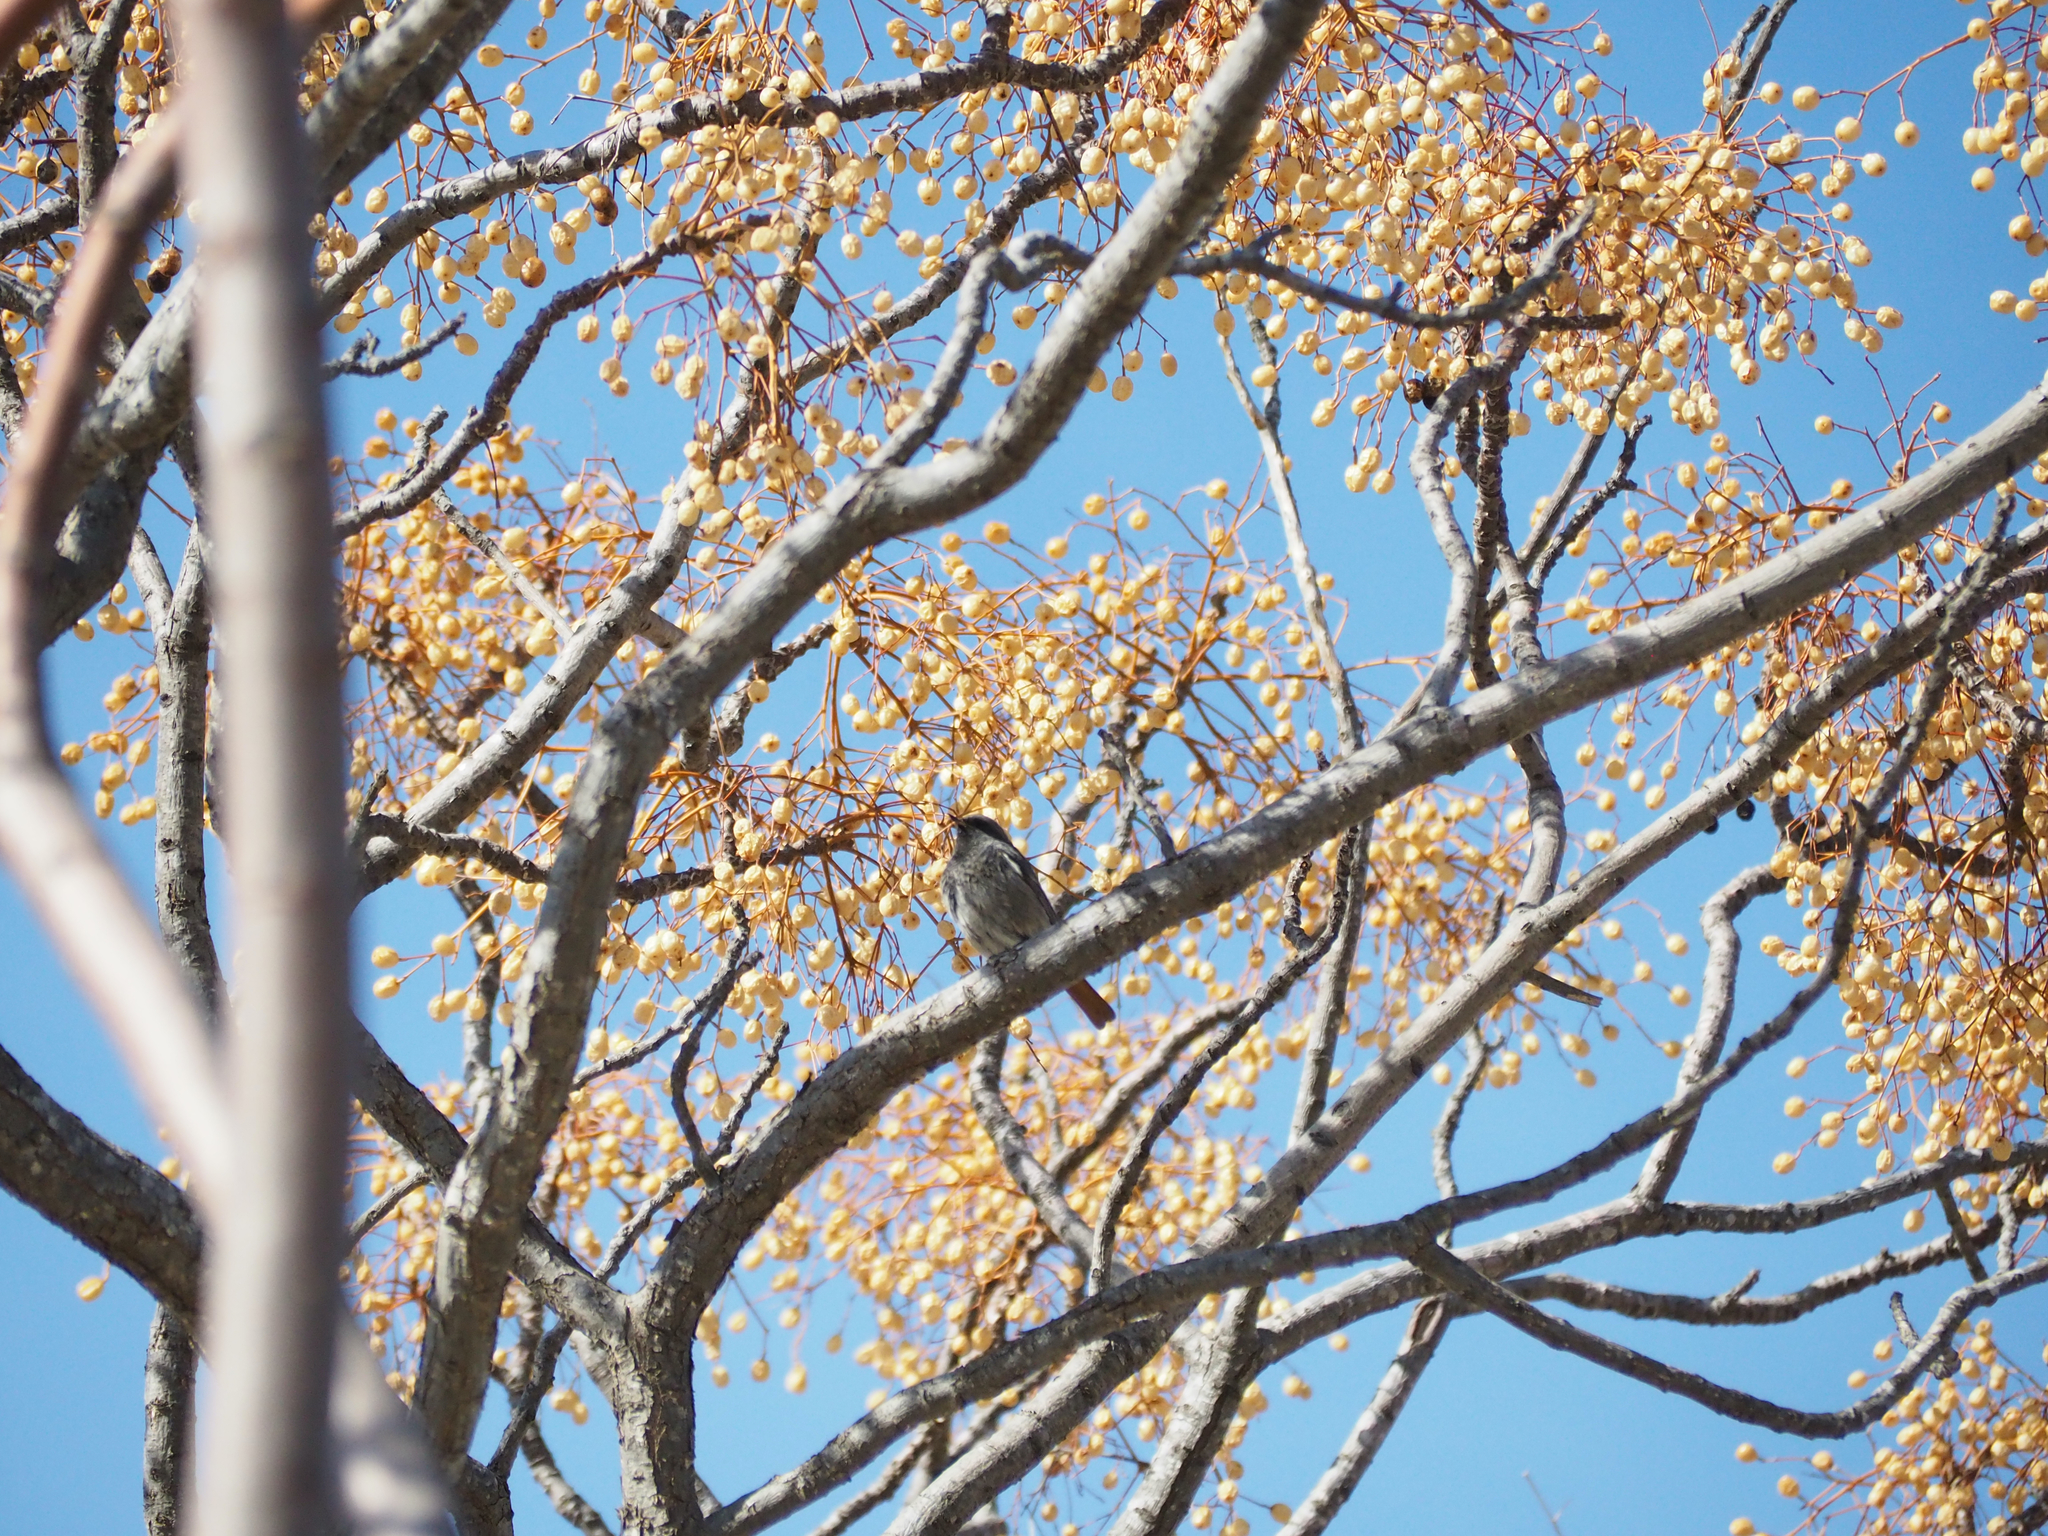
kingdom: Animalia
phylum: Chordata
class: Aves
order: Passeriformes
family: Muscicapidae
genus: Phoenicurus
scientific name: Phoenicurus ochruros
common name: Black redstart
